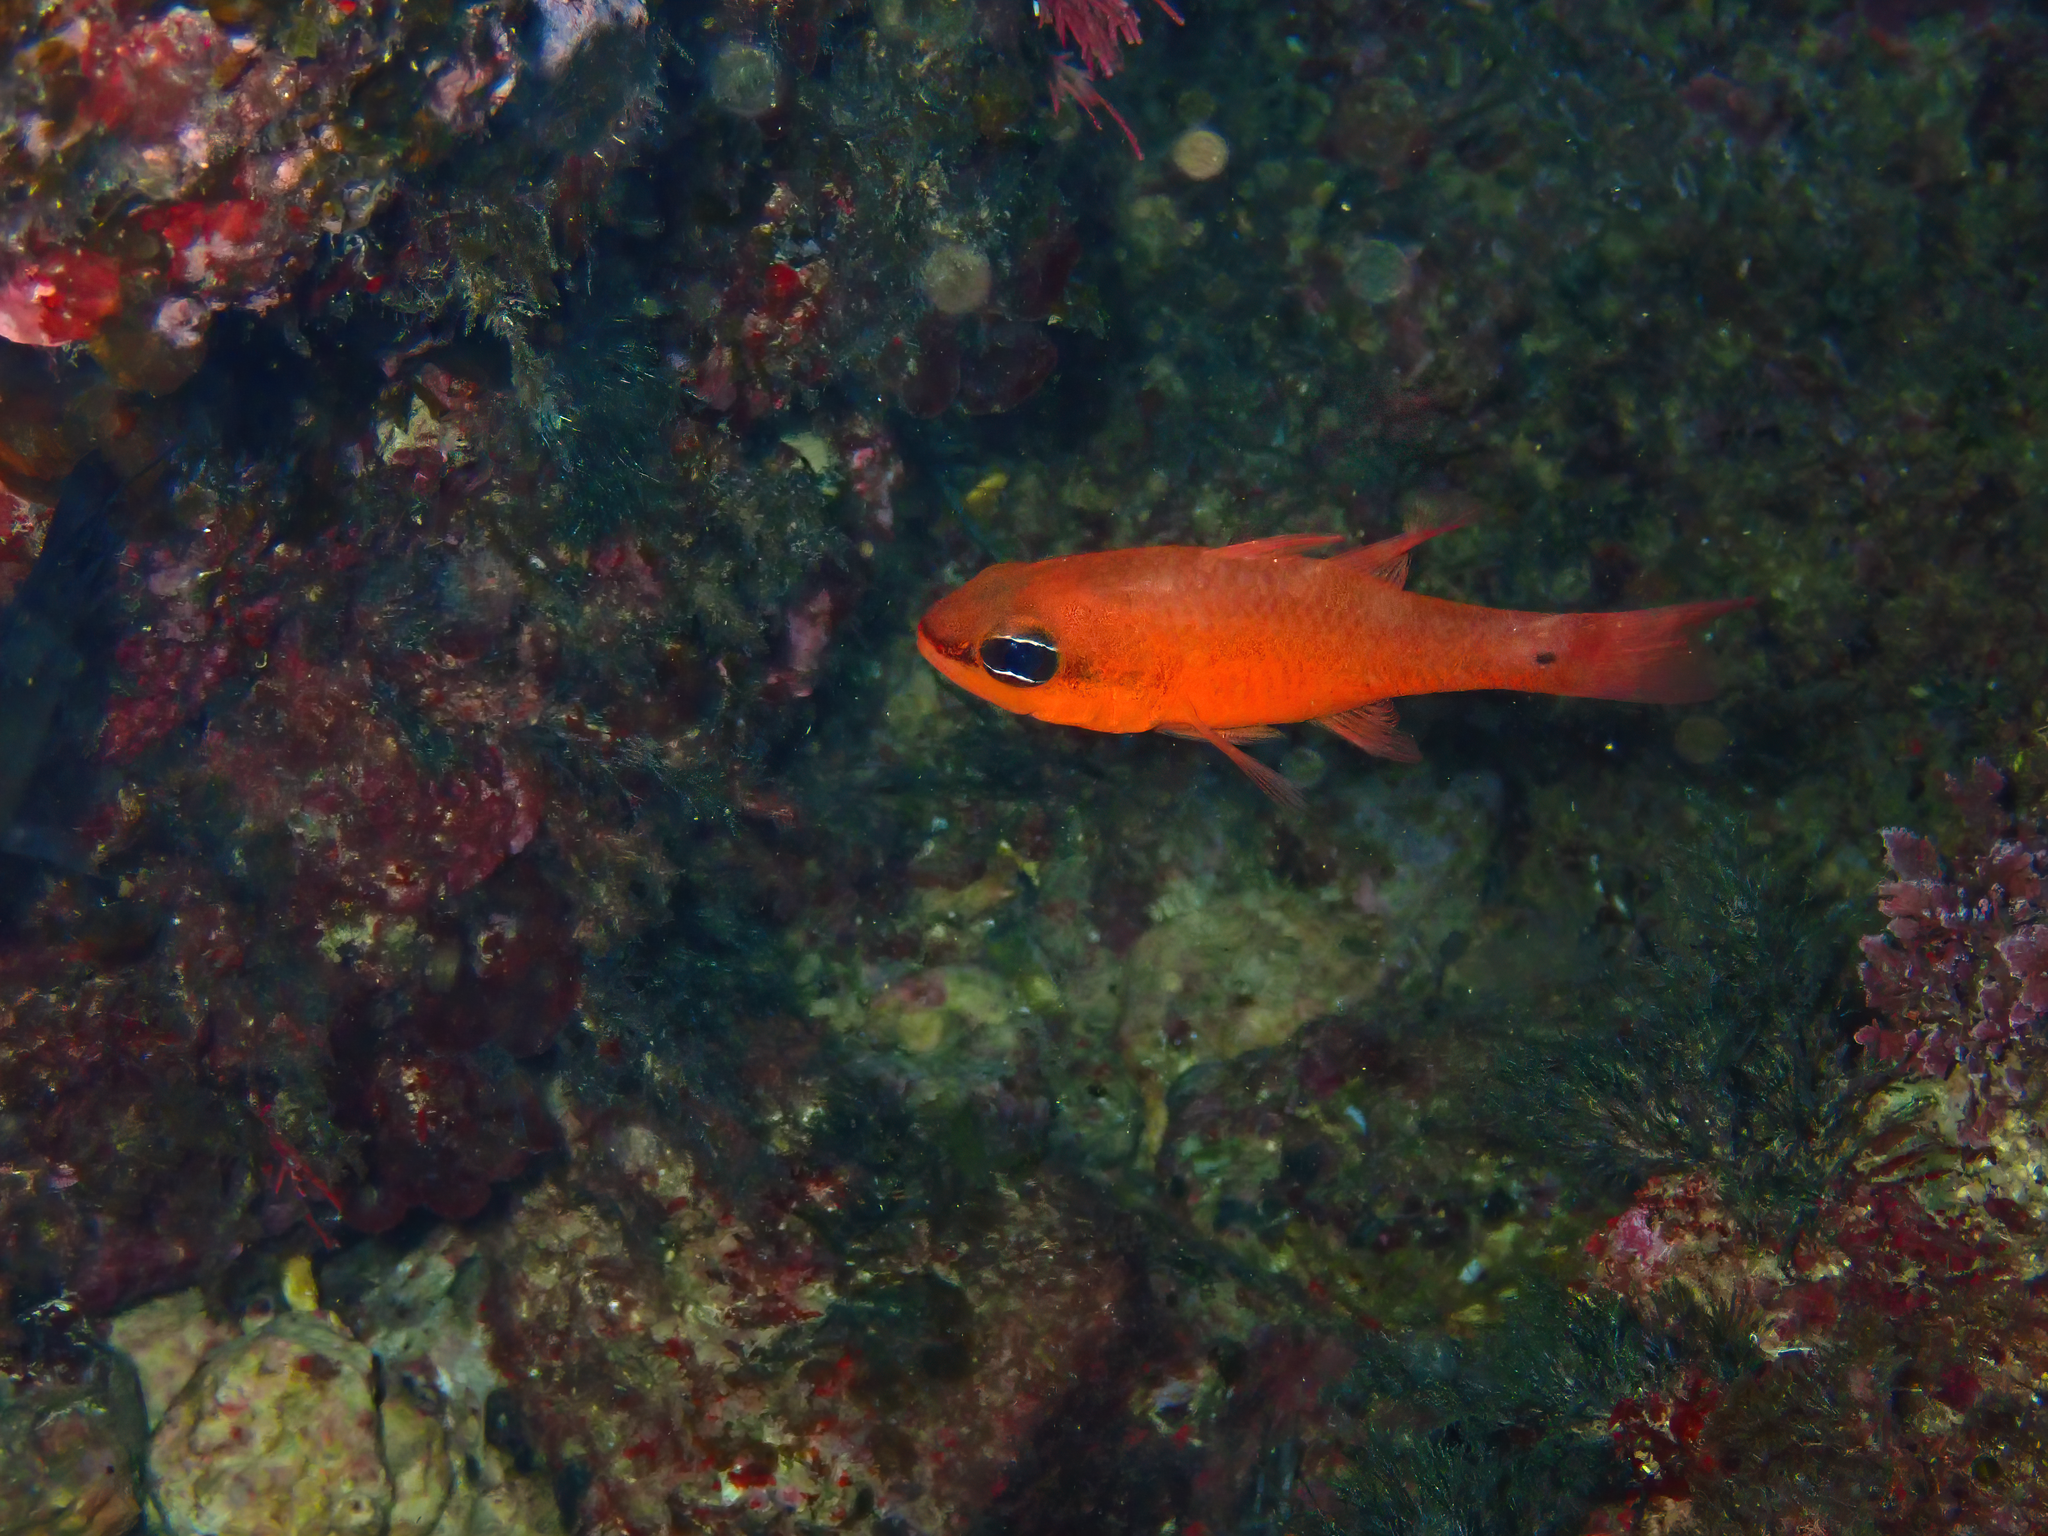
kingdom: Animalia
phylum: Chordata
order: Perciformes
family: Apogonidae
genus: Apogon
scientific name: Apogon imberbis
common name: Cardinal fish
